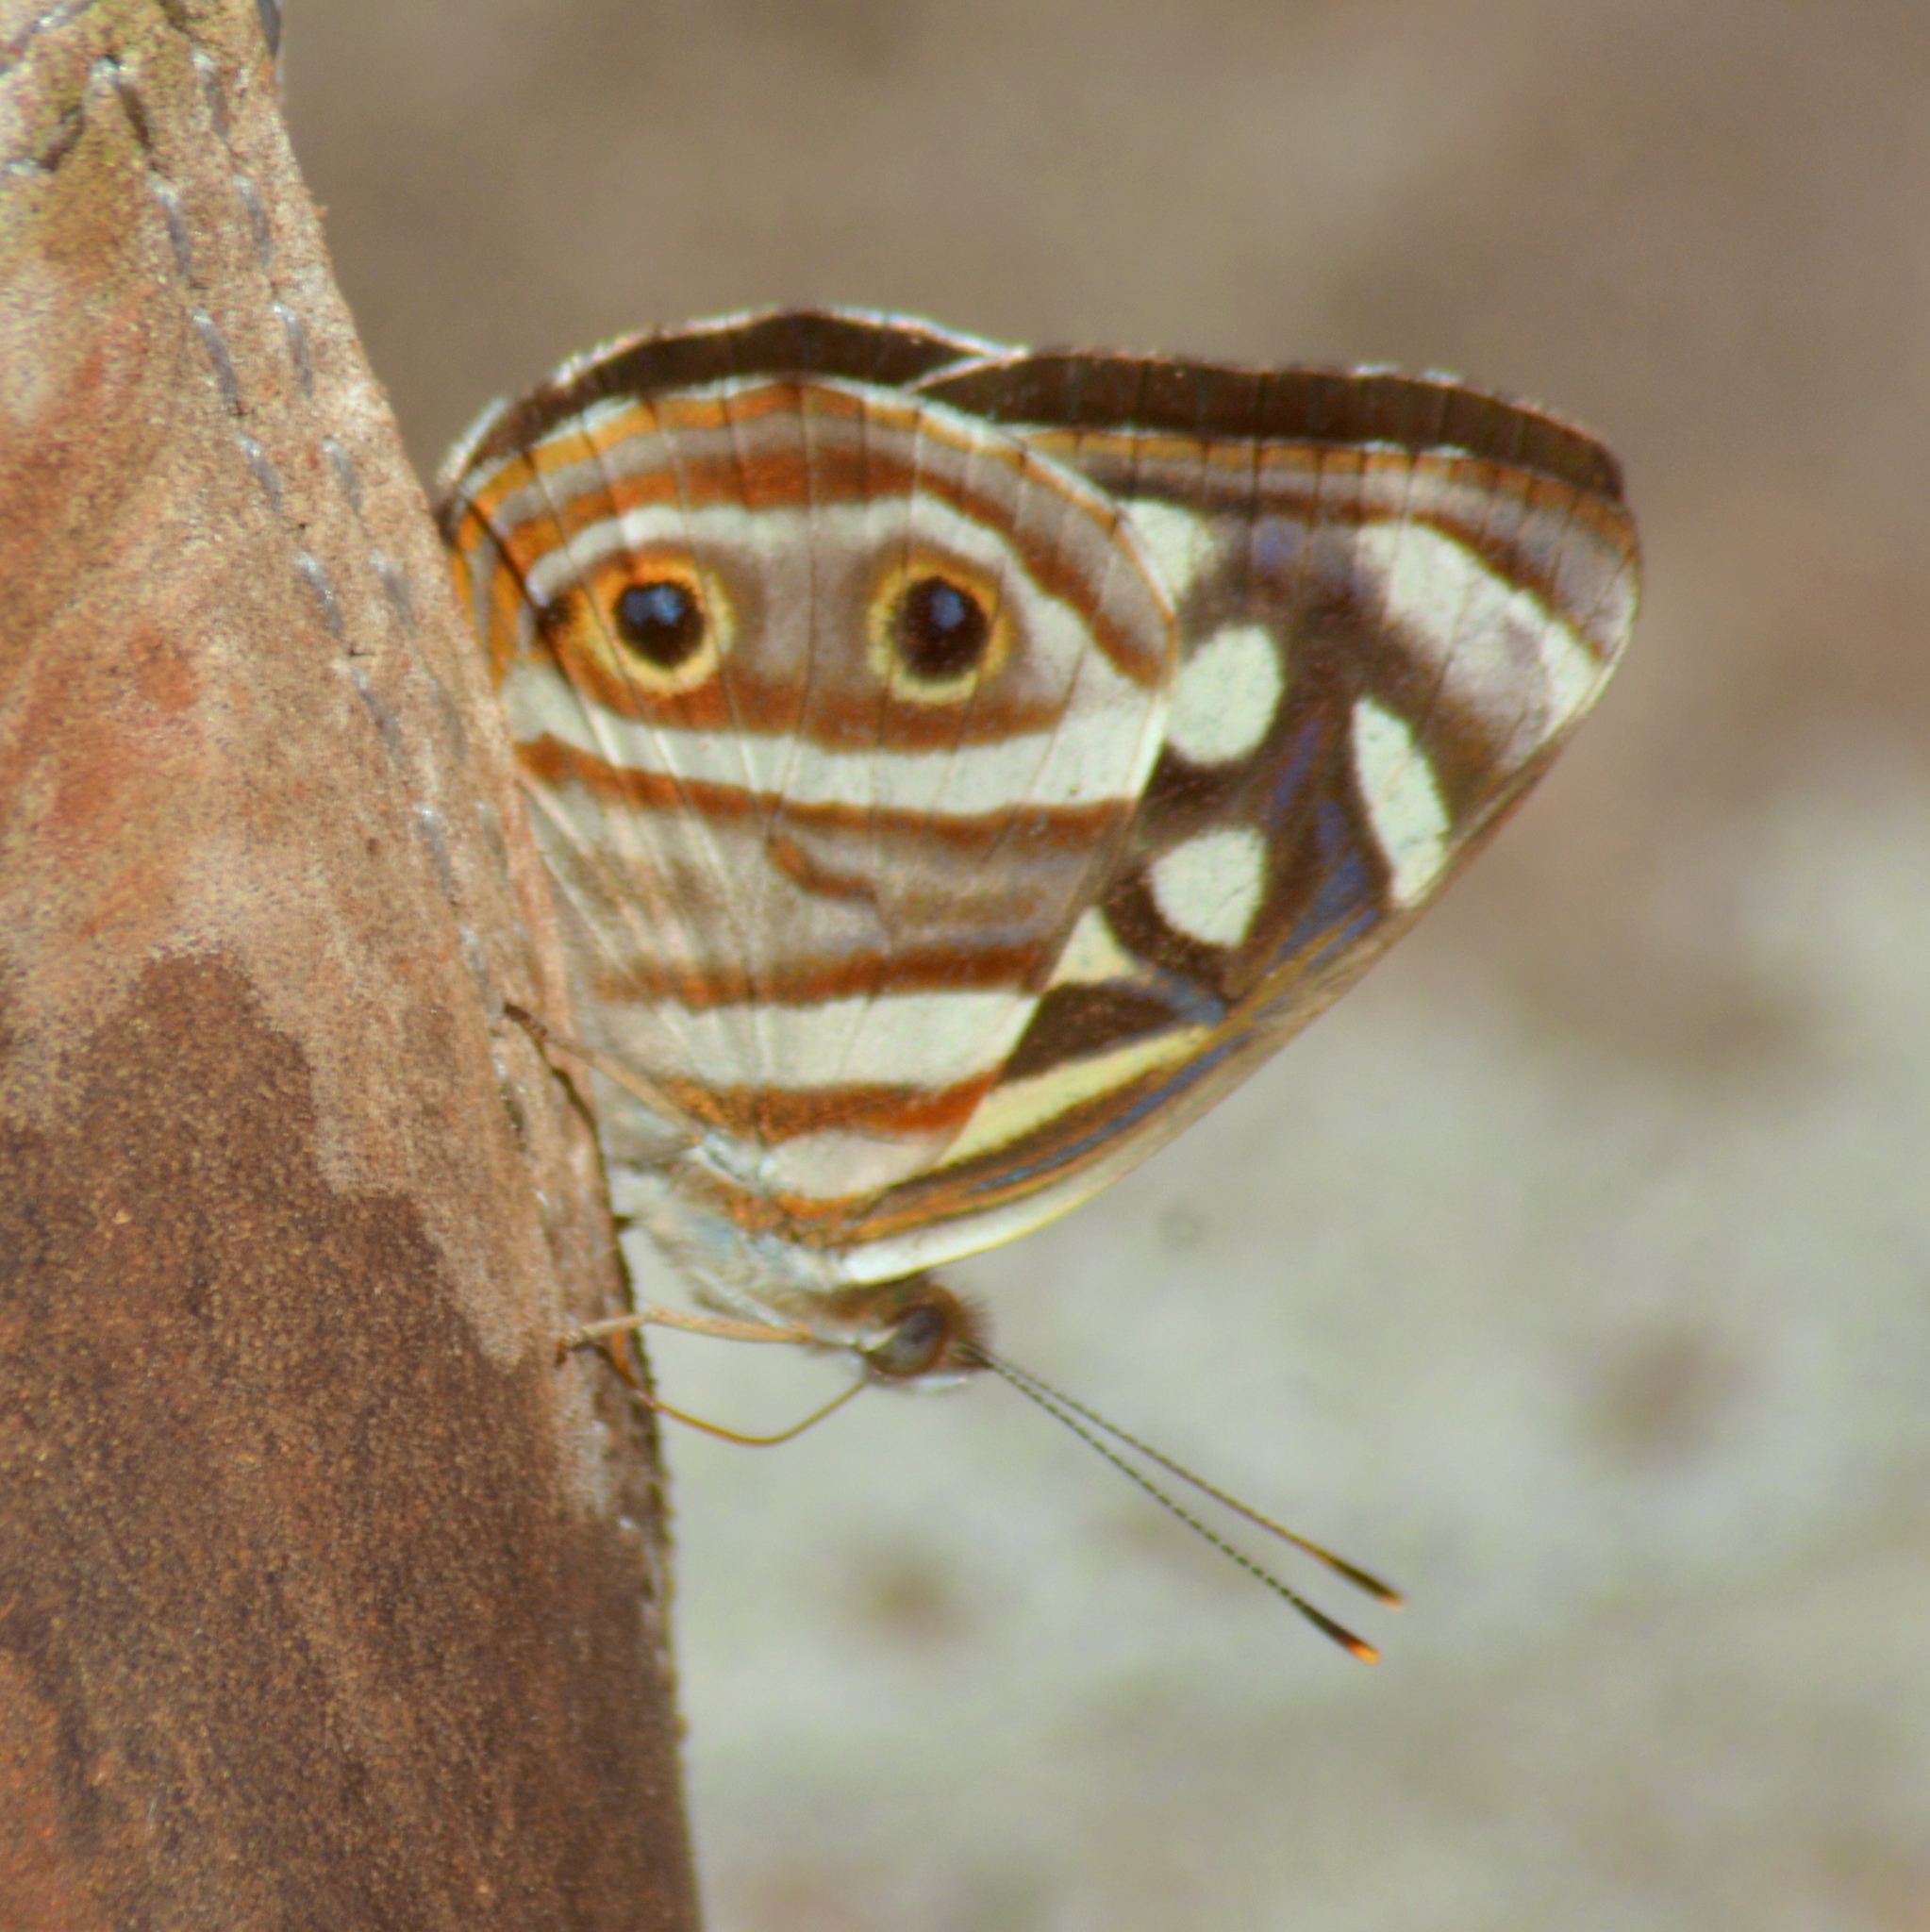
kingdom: Animalia
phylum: Arthropoda
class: Insecta
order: Lepidoptera
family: Nymphalidae
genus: Dynamine
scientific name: Dynamine mylitta
